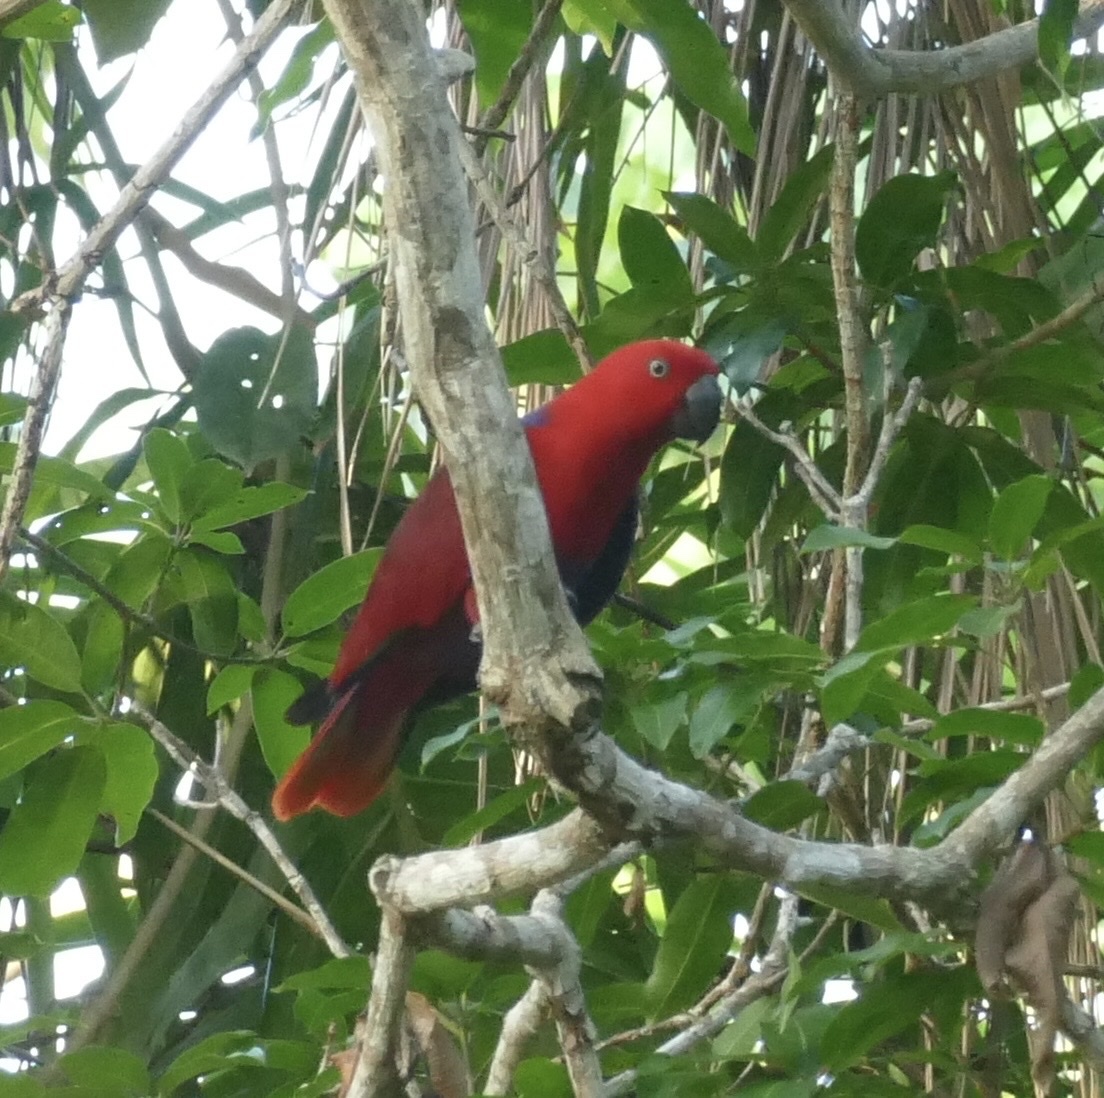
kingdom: Animalia
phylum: Chordata
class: Aves
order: Psittaciformes
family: Psittacidae
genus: Eclectus
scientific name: Eclectus roratus
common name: Eclectus parrot
